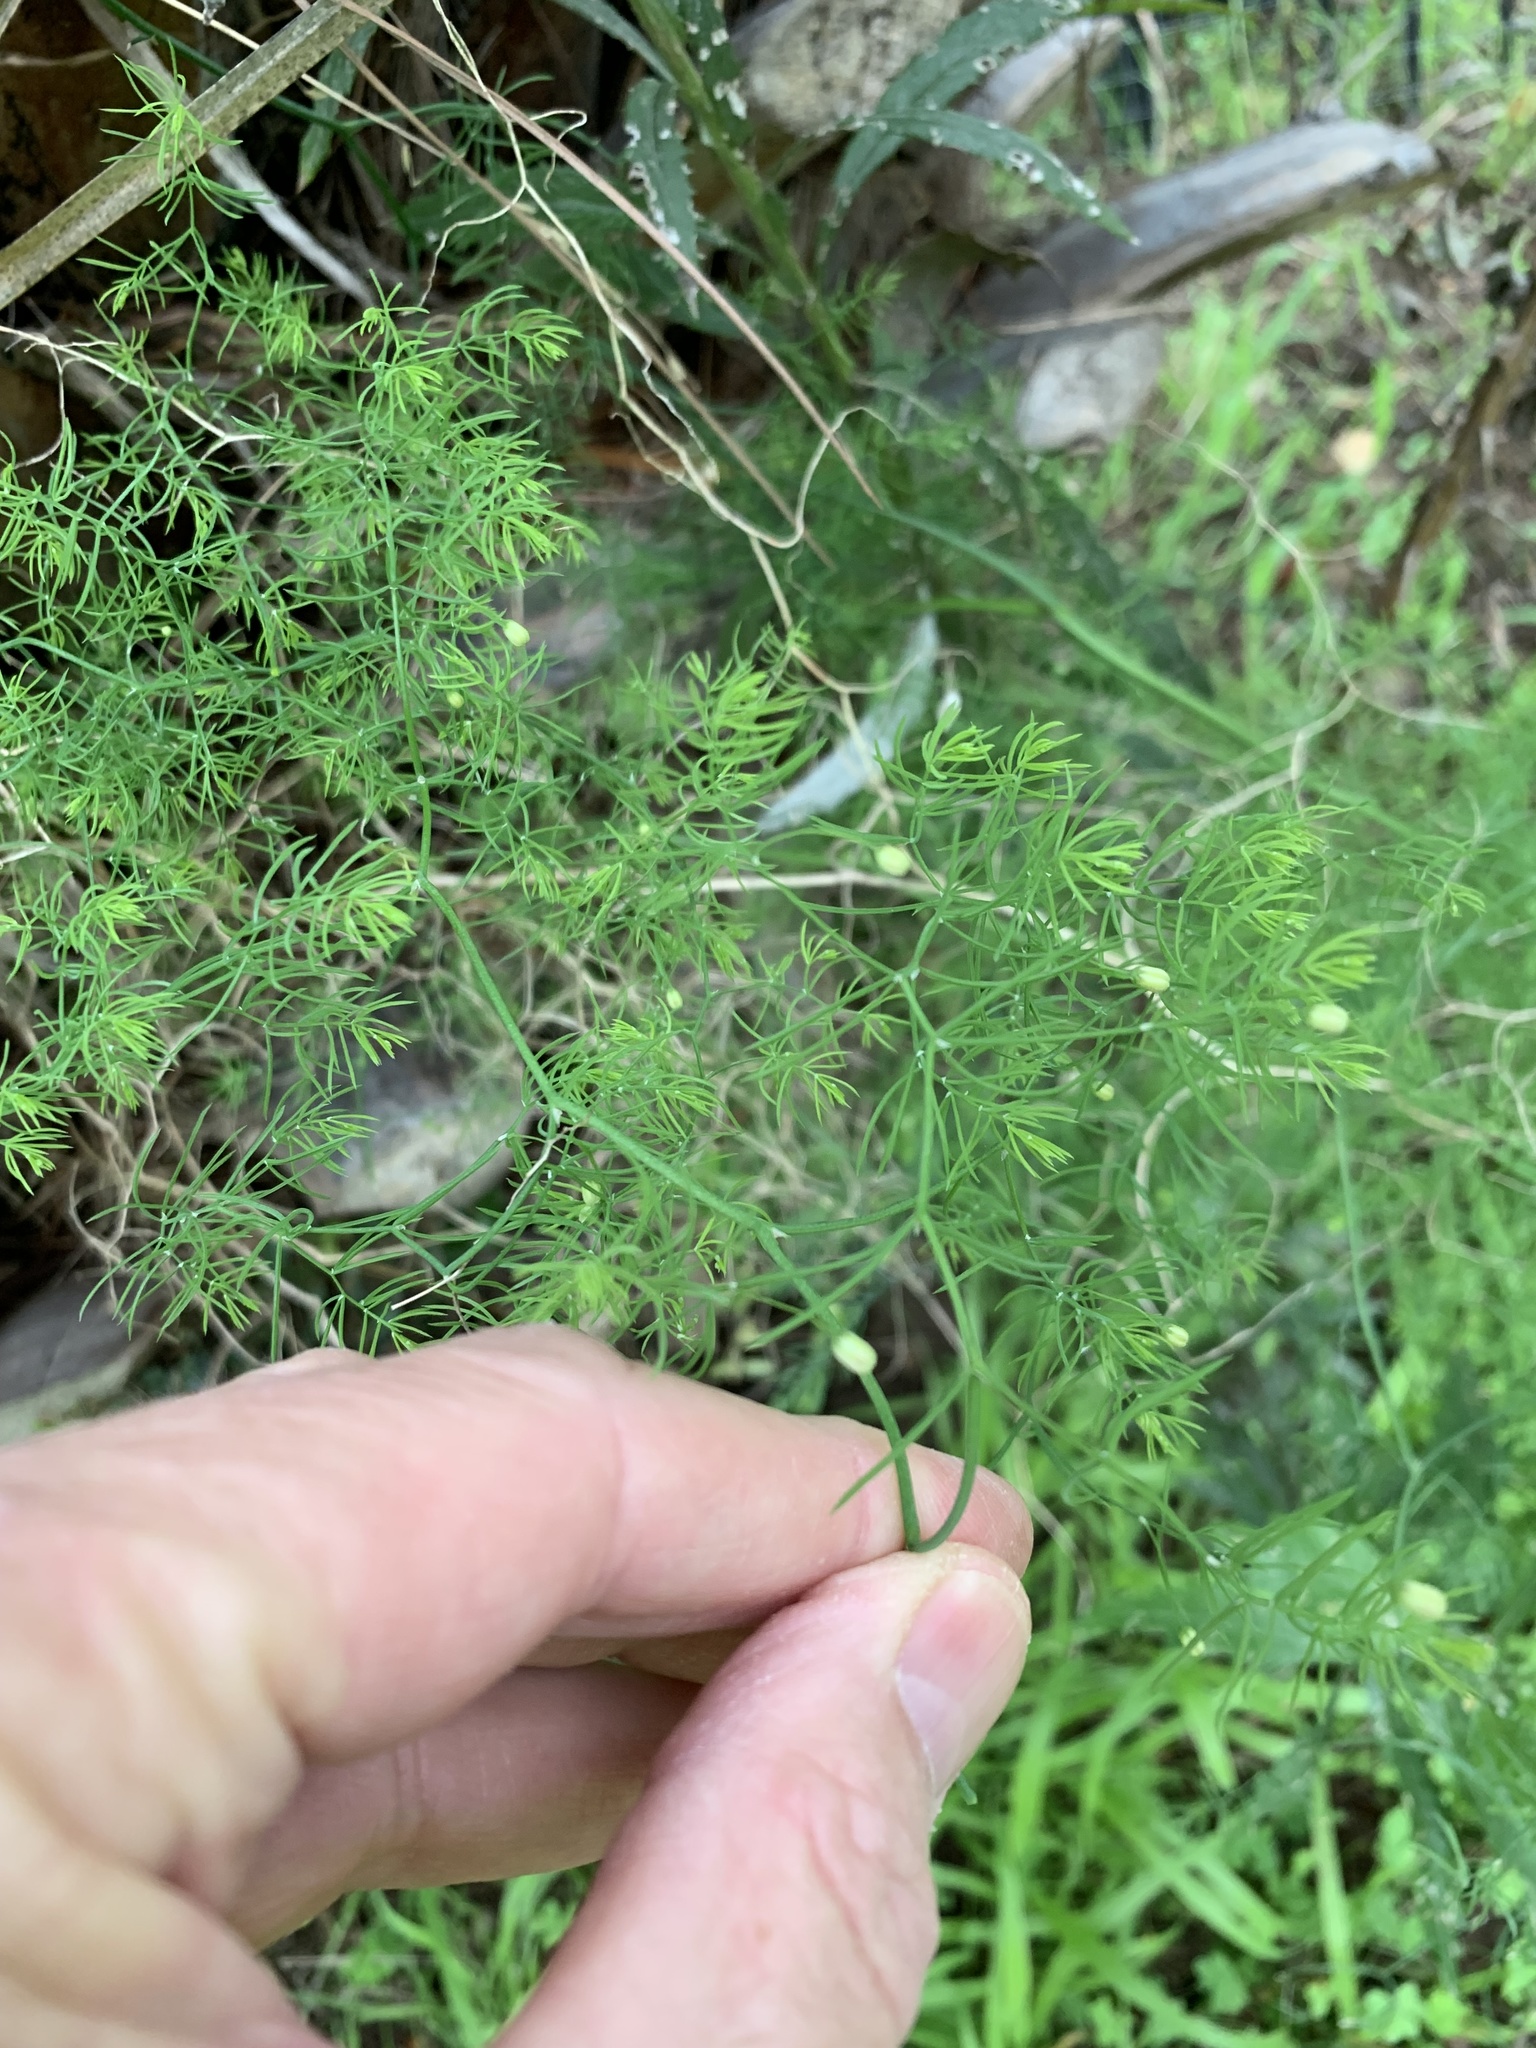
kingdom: Plantae
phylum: Tracheophyta
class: Liliopsida
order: Asparagales
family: Asparagaceae
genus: Asparagus
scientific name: Asparagus declinatus
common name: Bridal-creeper
